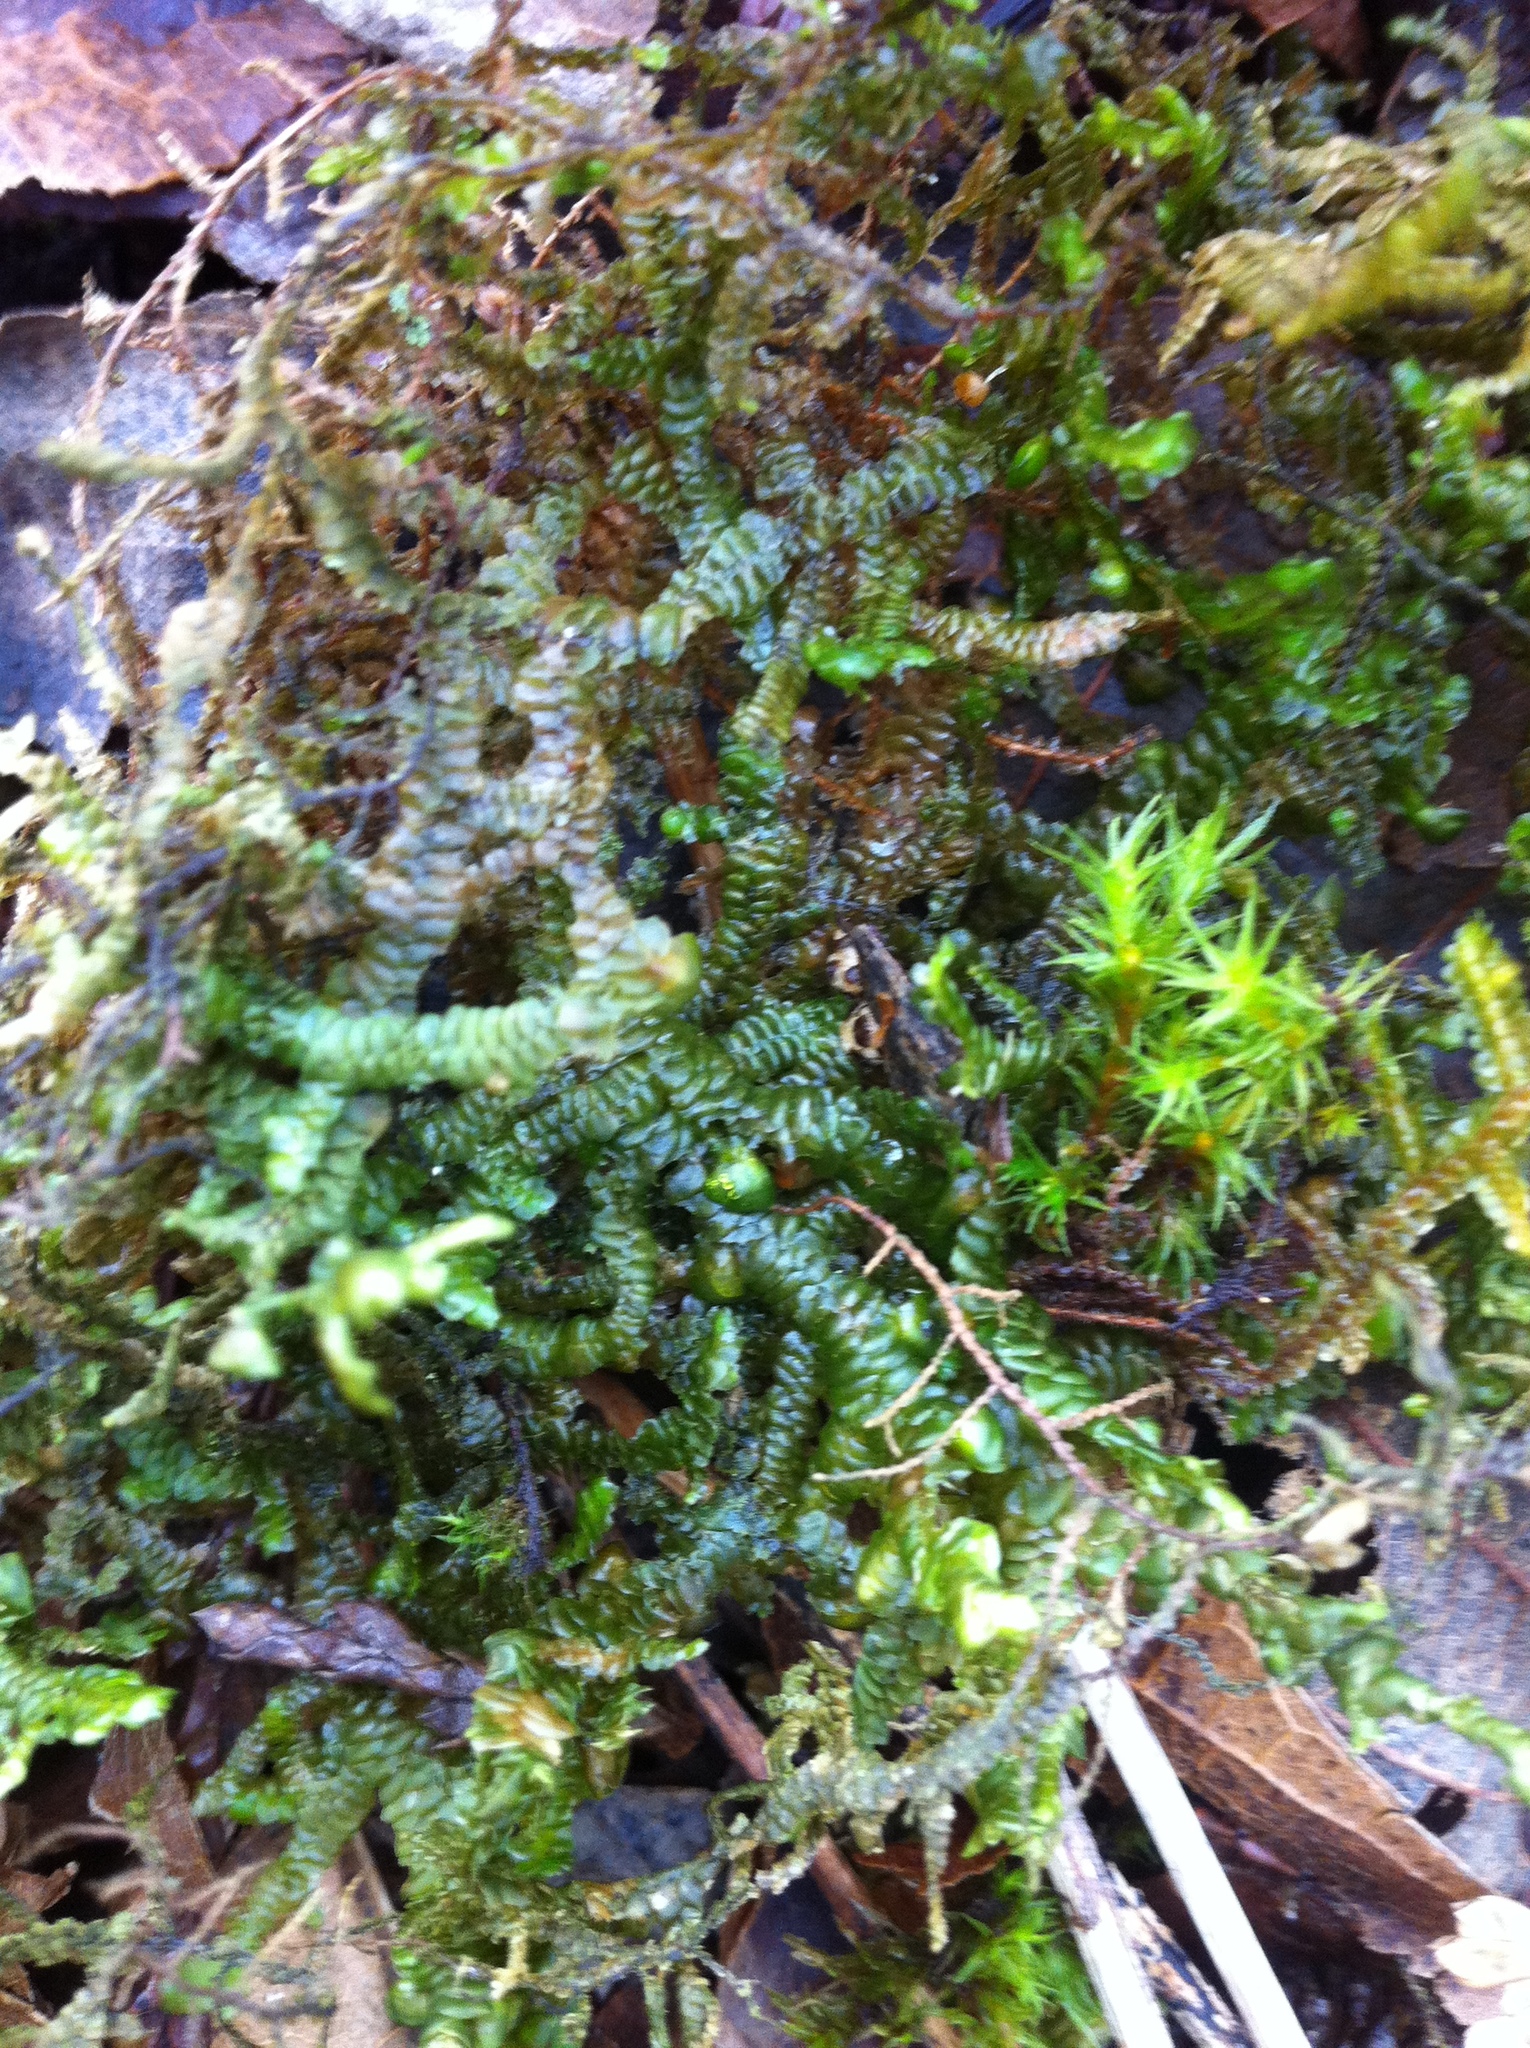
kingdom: Plantae
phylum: Marchantiophyta
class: Jungermanniopsida
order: Porellales
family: Porellaceae
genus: Porella
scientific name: Porella navicularis
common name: Tree ruffle liverwort
